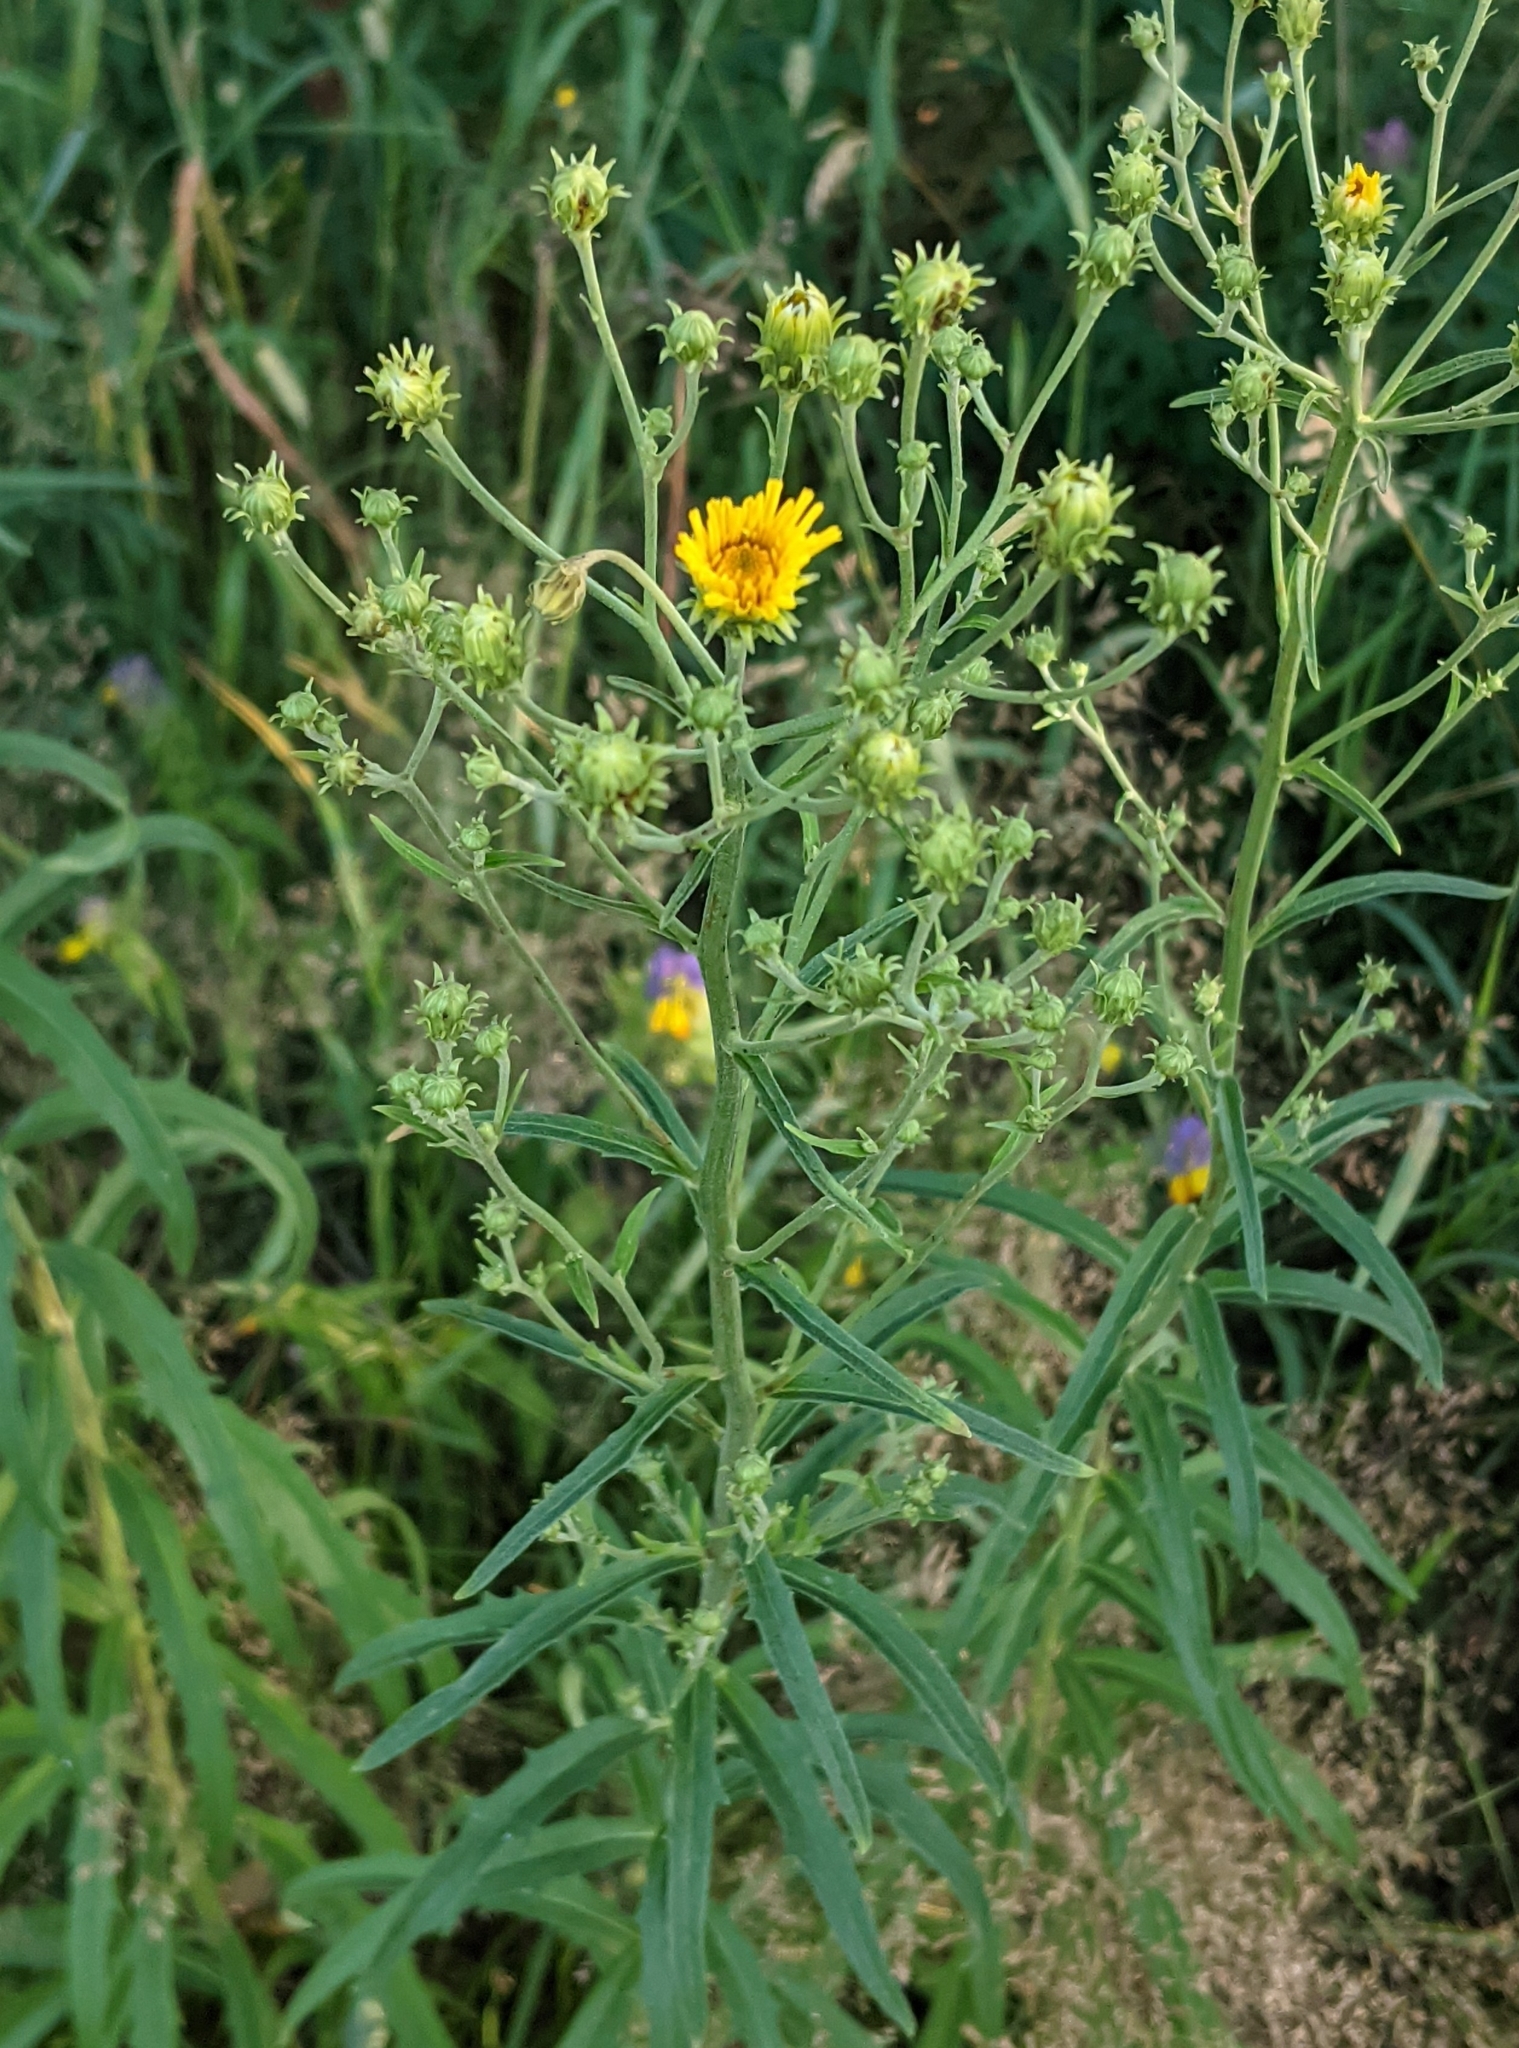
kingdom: Plantae
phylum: Tracheophyta
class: Magnoliopsida
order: Asterales
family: Asteraceae
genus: Hieracium
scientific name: Hieracium umbellatum
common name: Northern hawkweed
